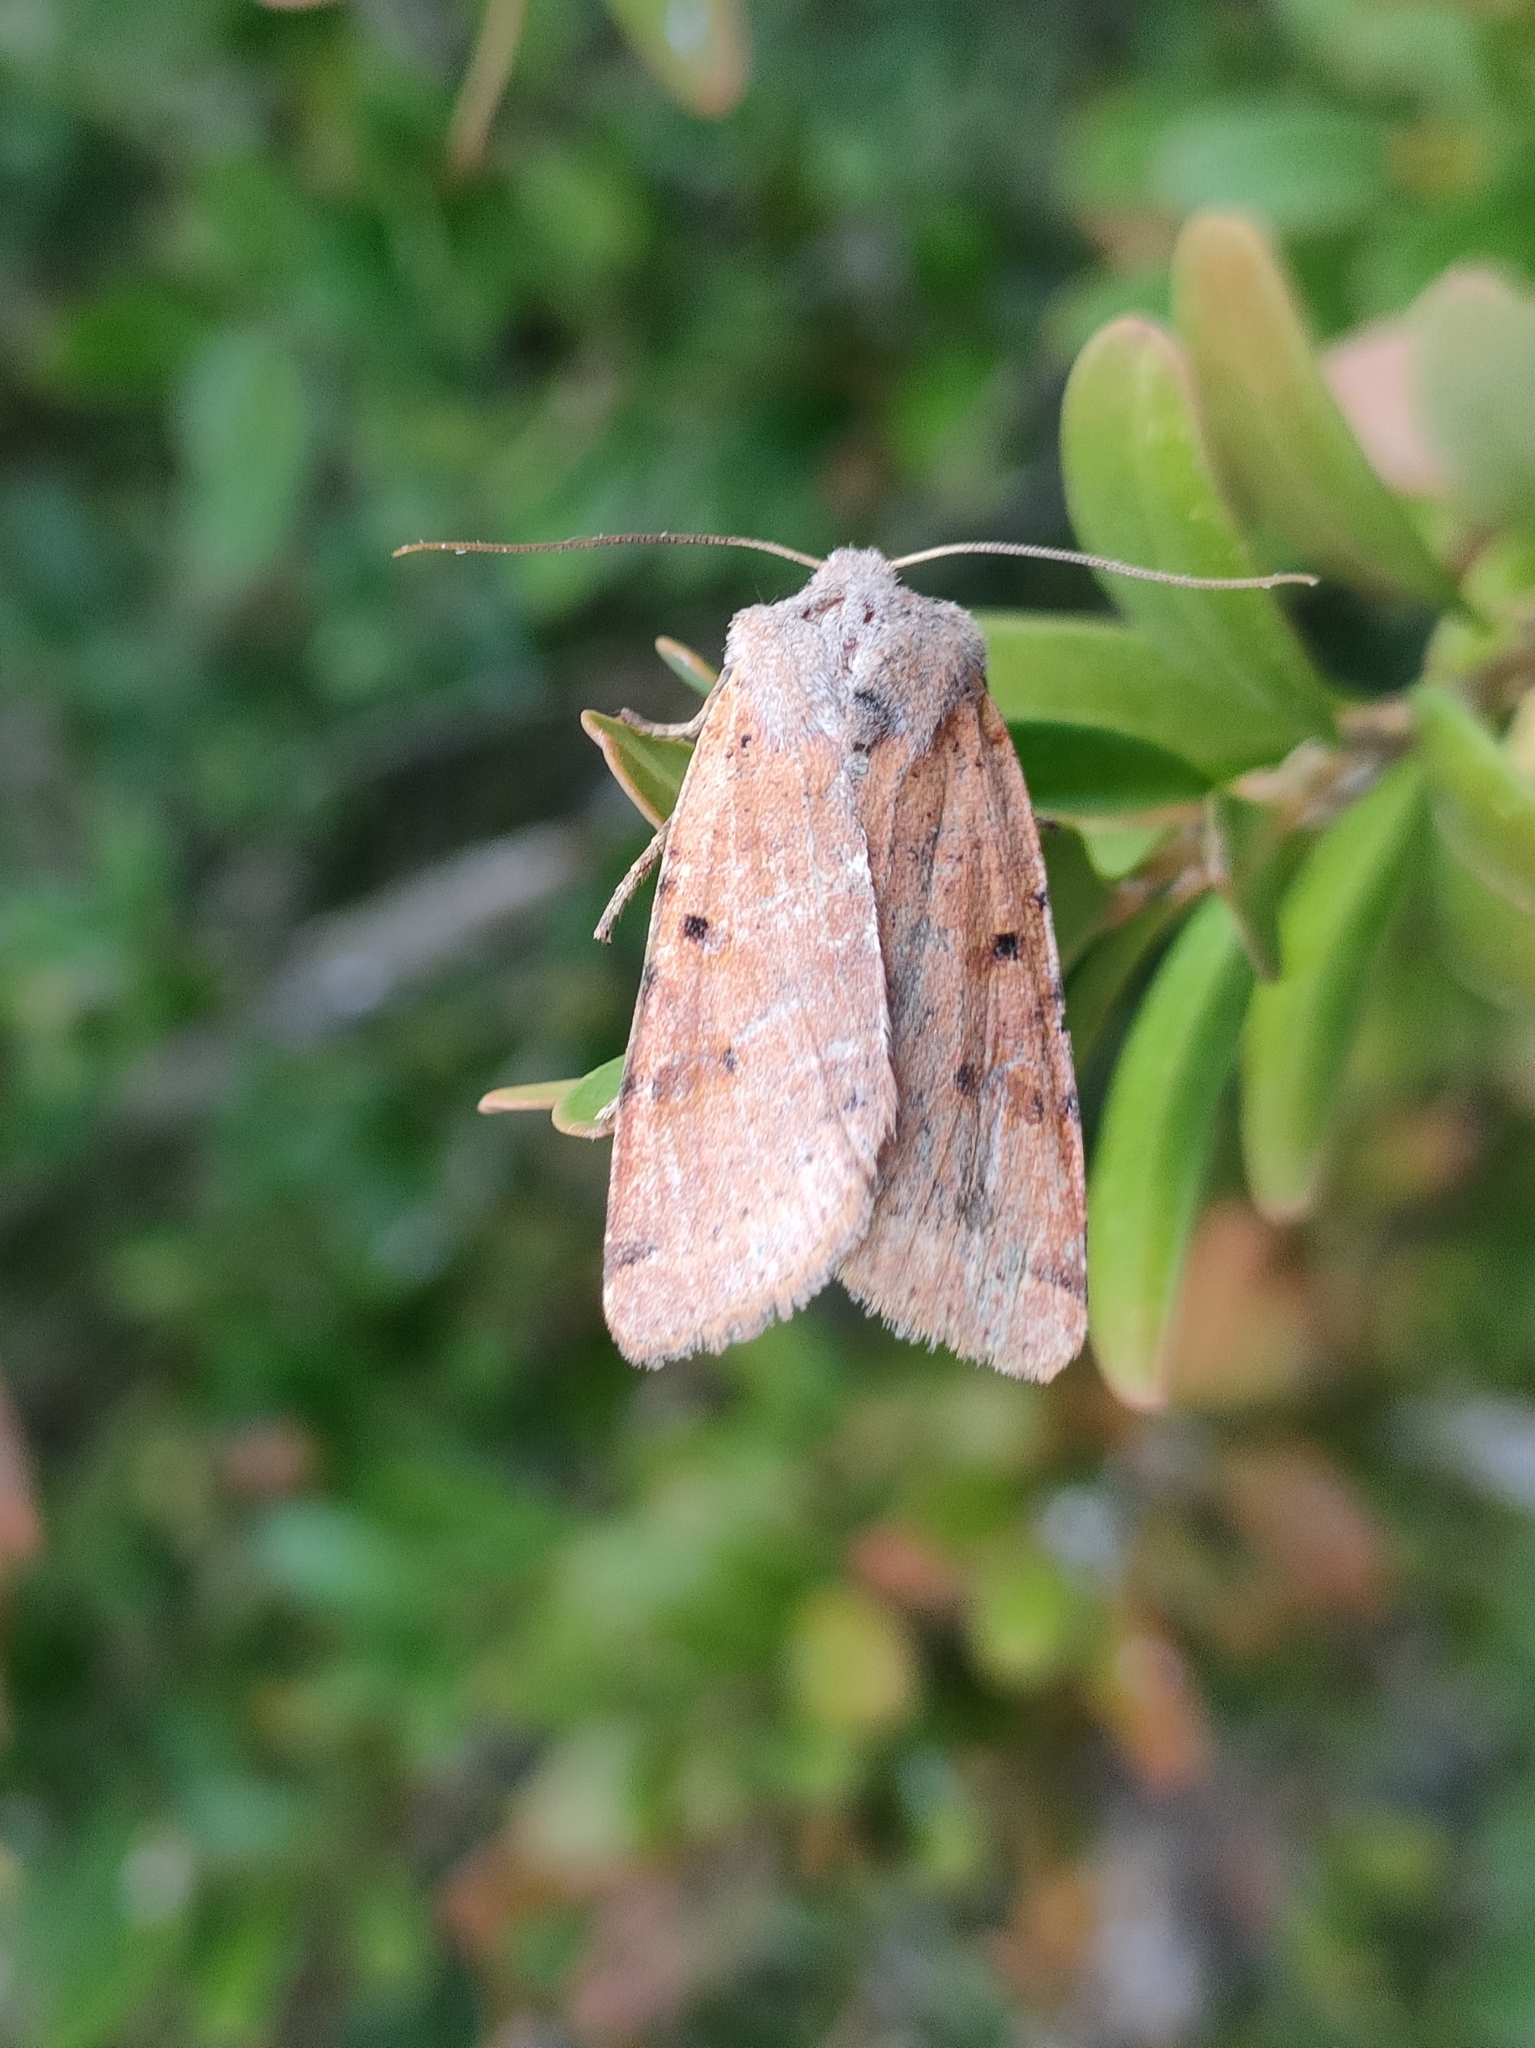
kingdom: Animalia
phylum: Arthropoda
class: Insecta
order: Lepidoptera
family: Noctuidae
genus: Agrochola
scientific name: Agrochola lychnidis
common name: Beaded chestnut
